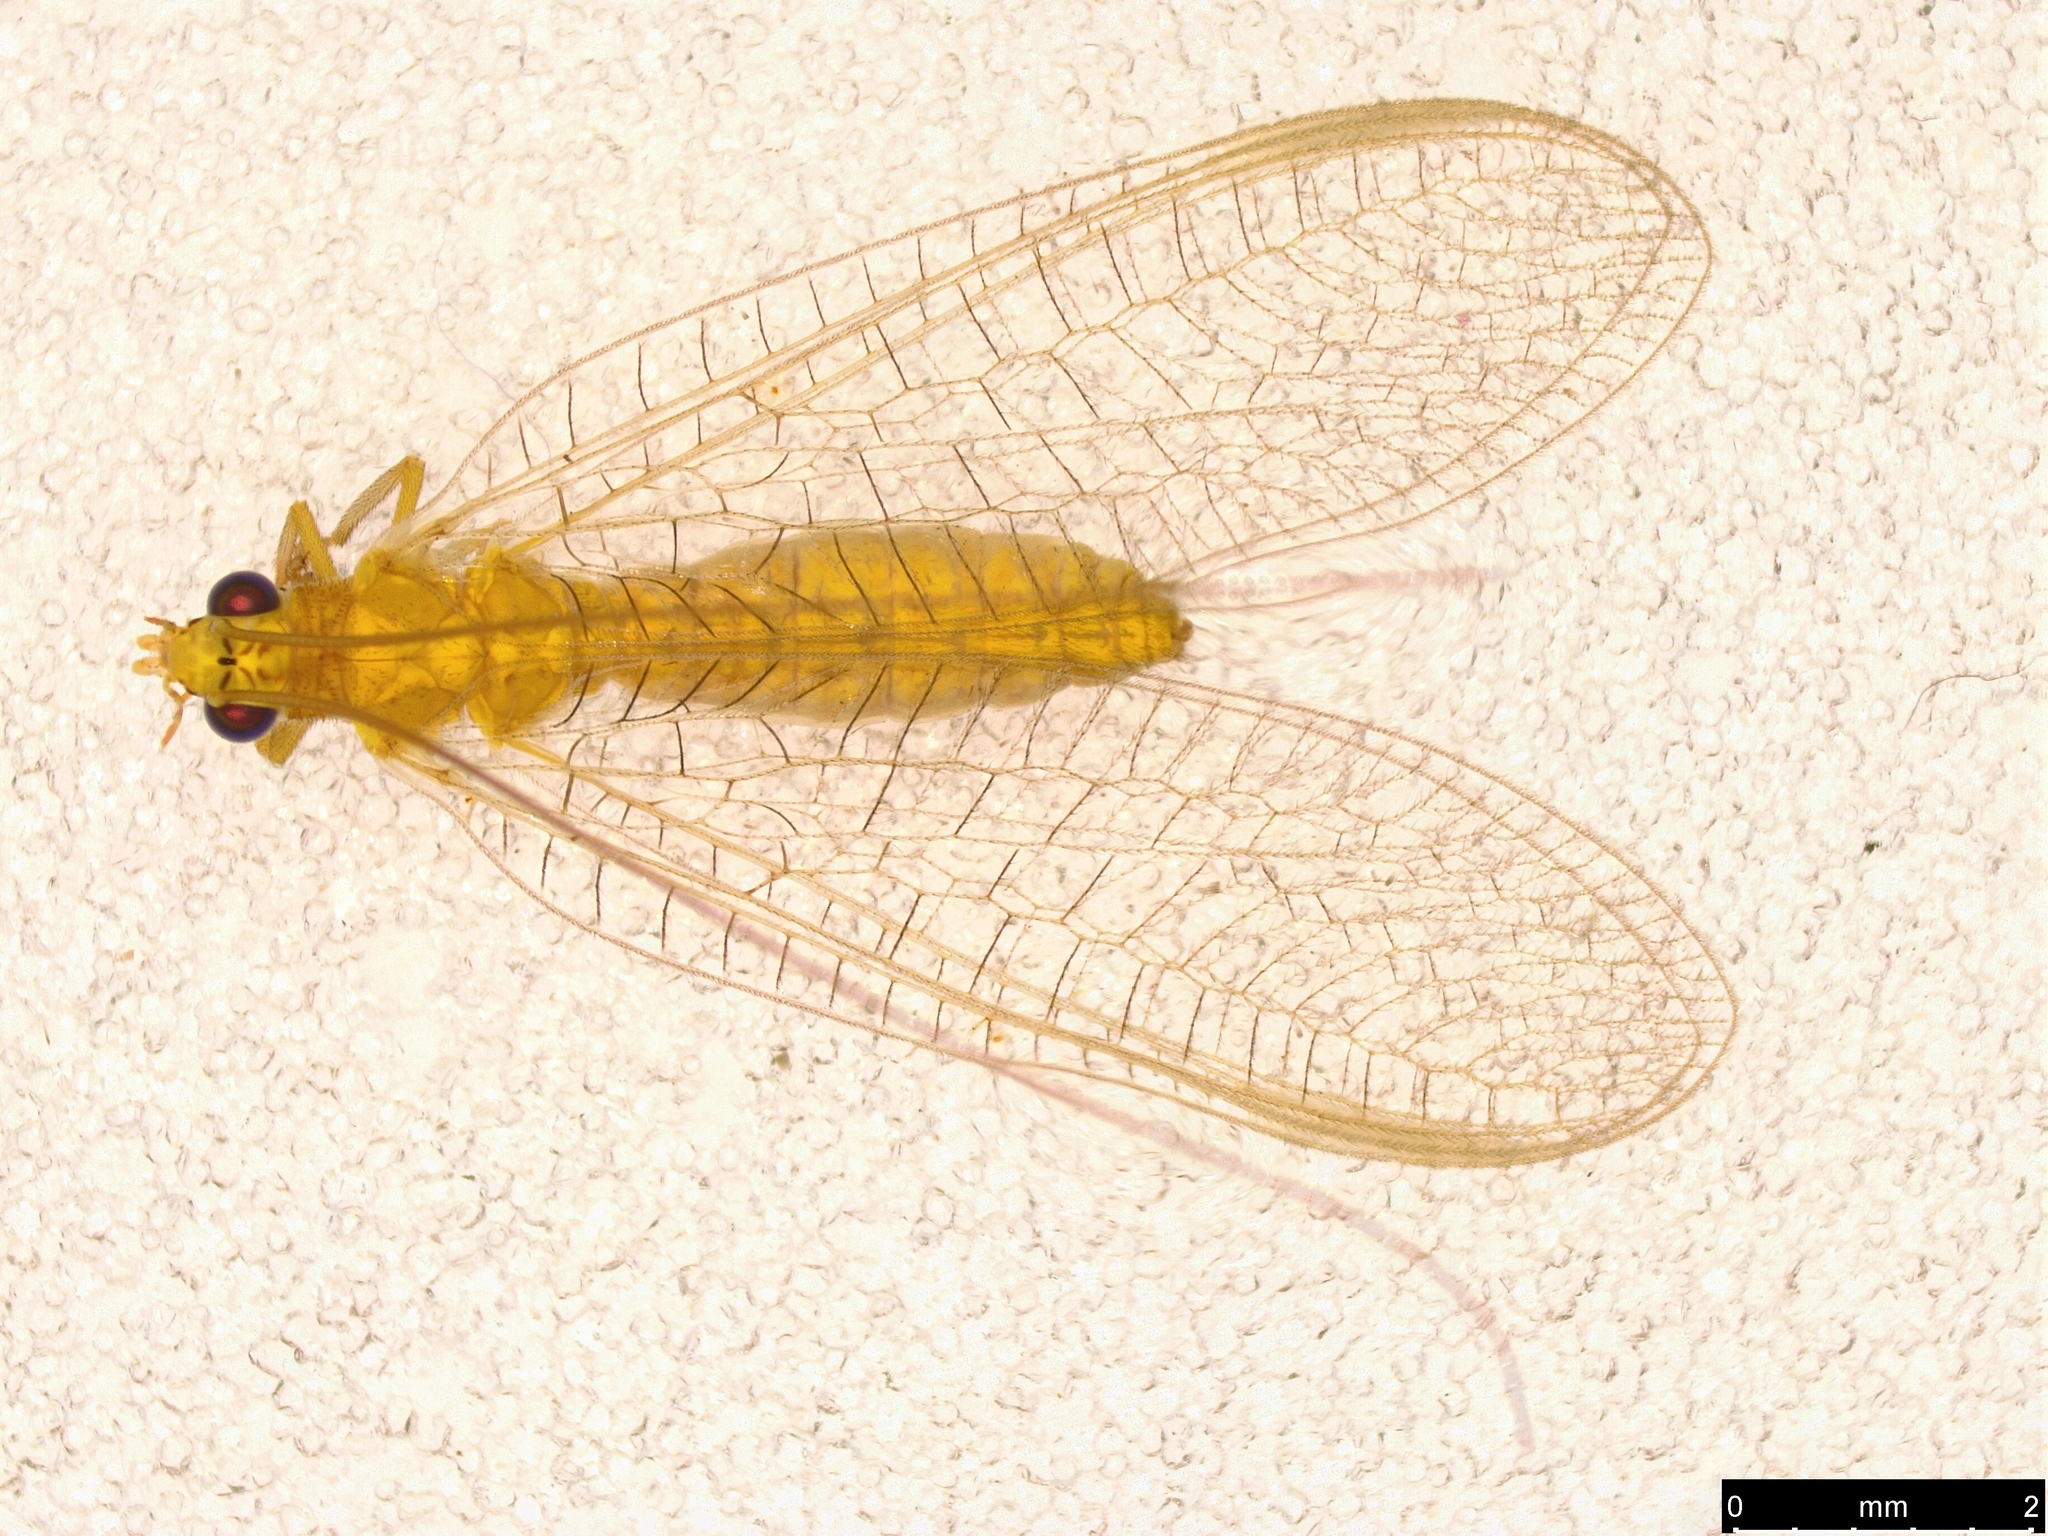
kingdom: Animalia
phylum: Arthropoda
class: Insecta
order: Neuroptera
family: Chrysopidae
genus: Mallada
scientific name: Mallada signatus
